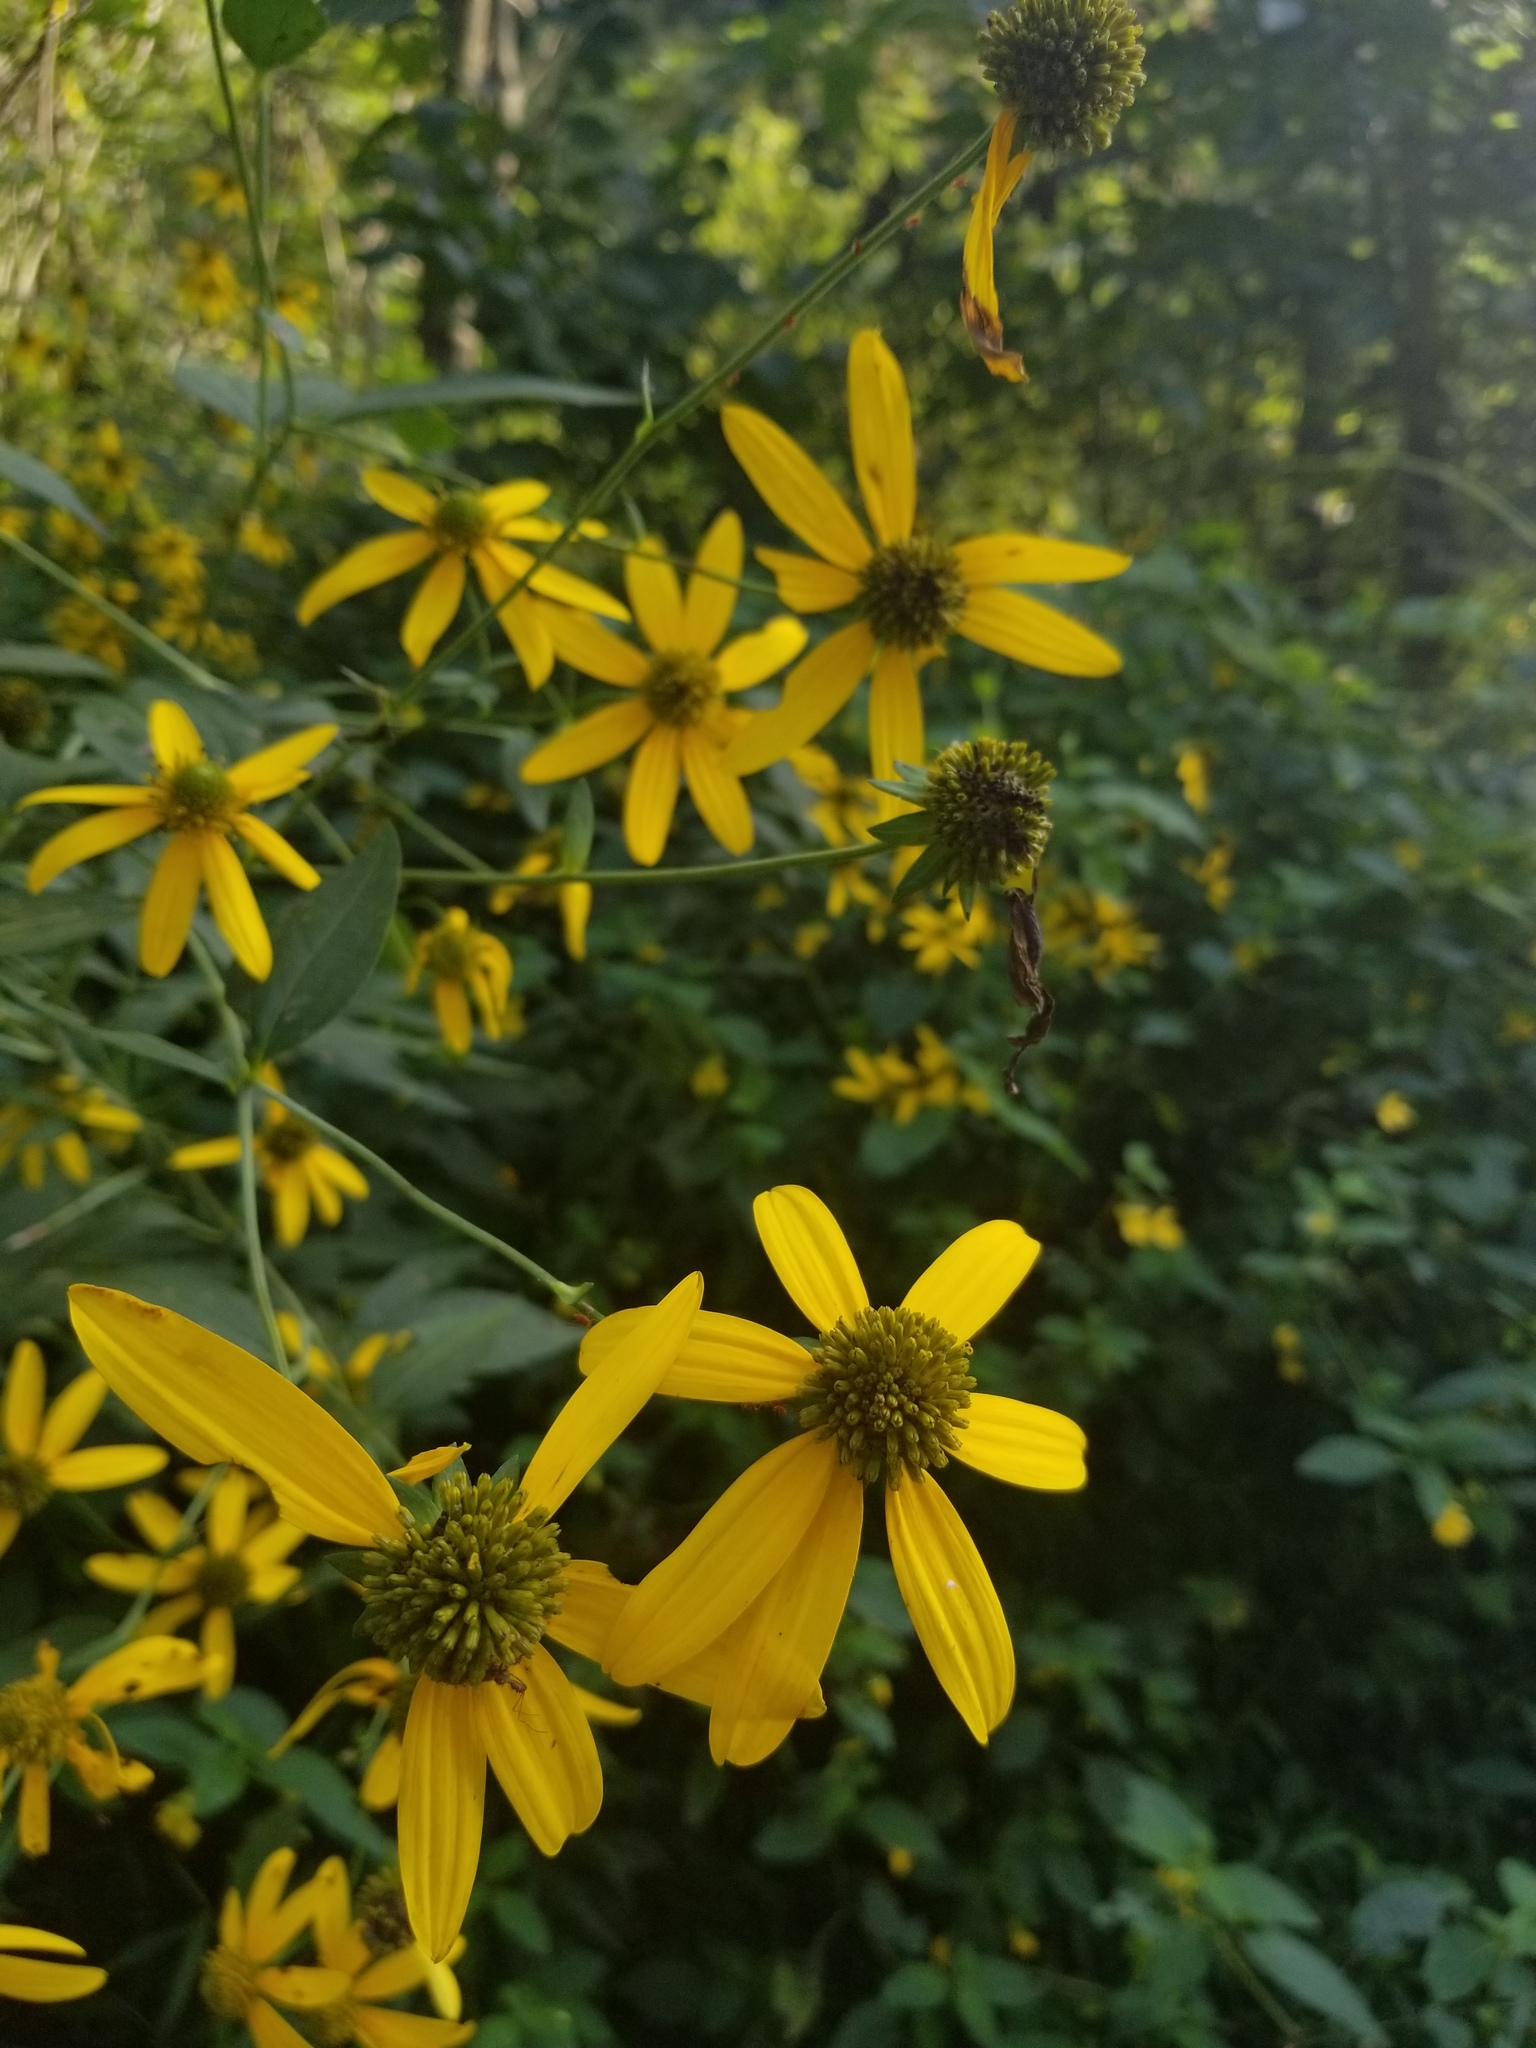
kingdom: Plantae
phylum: Tracheophyta
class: Magnoliopsida
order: Asterales
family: Asteraceae
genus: Rudbeckia
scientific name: Rudbeckia laciniata
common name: Coneflower
